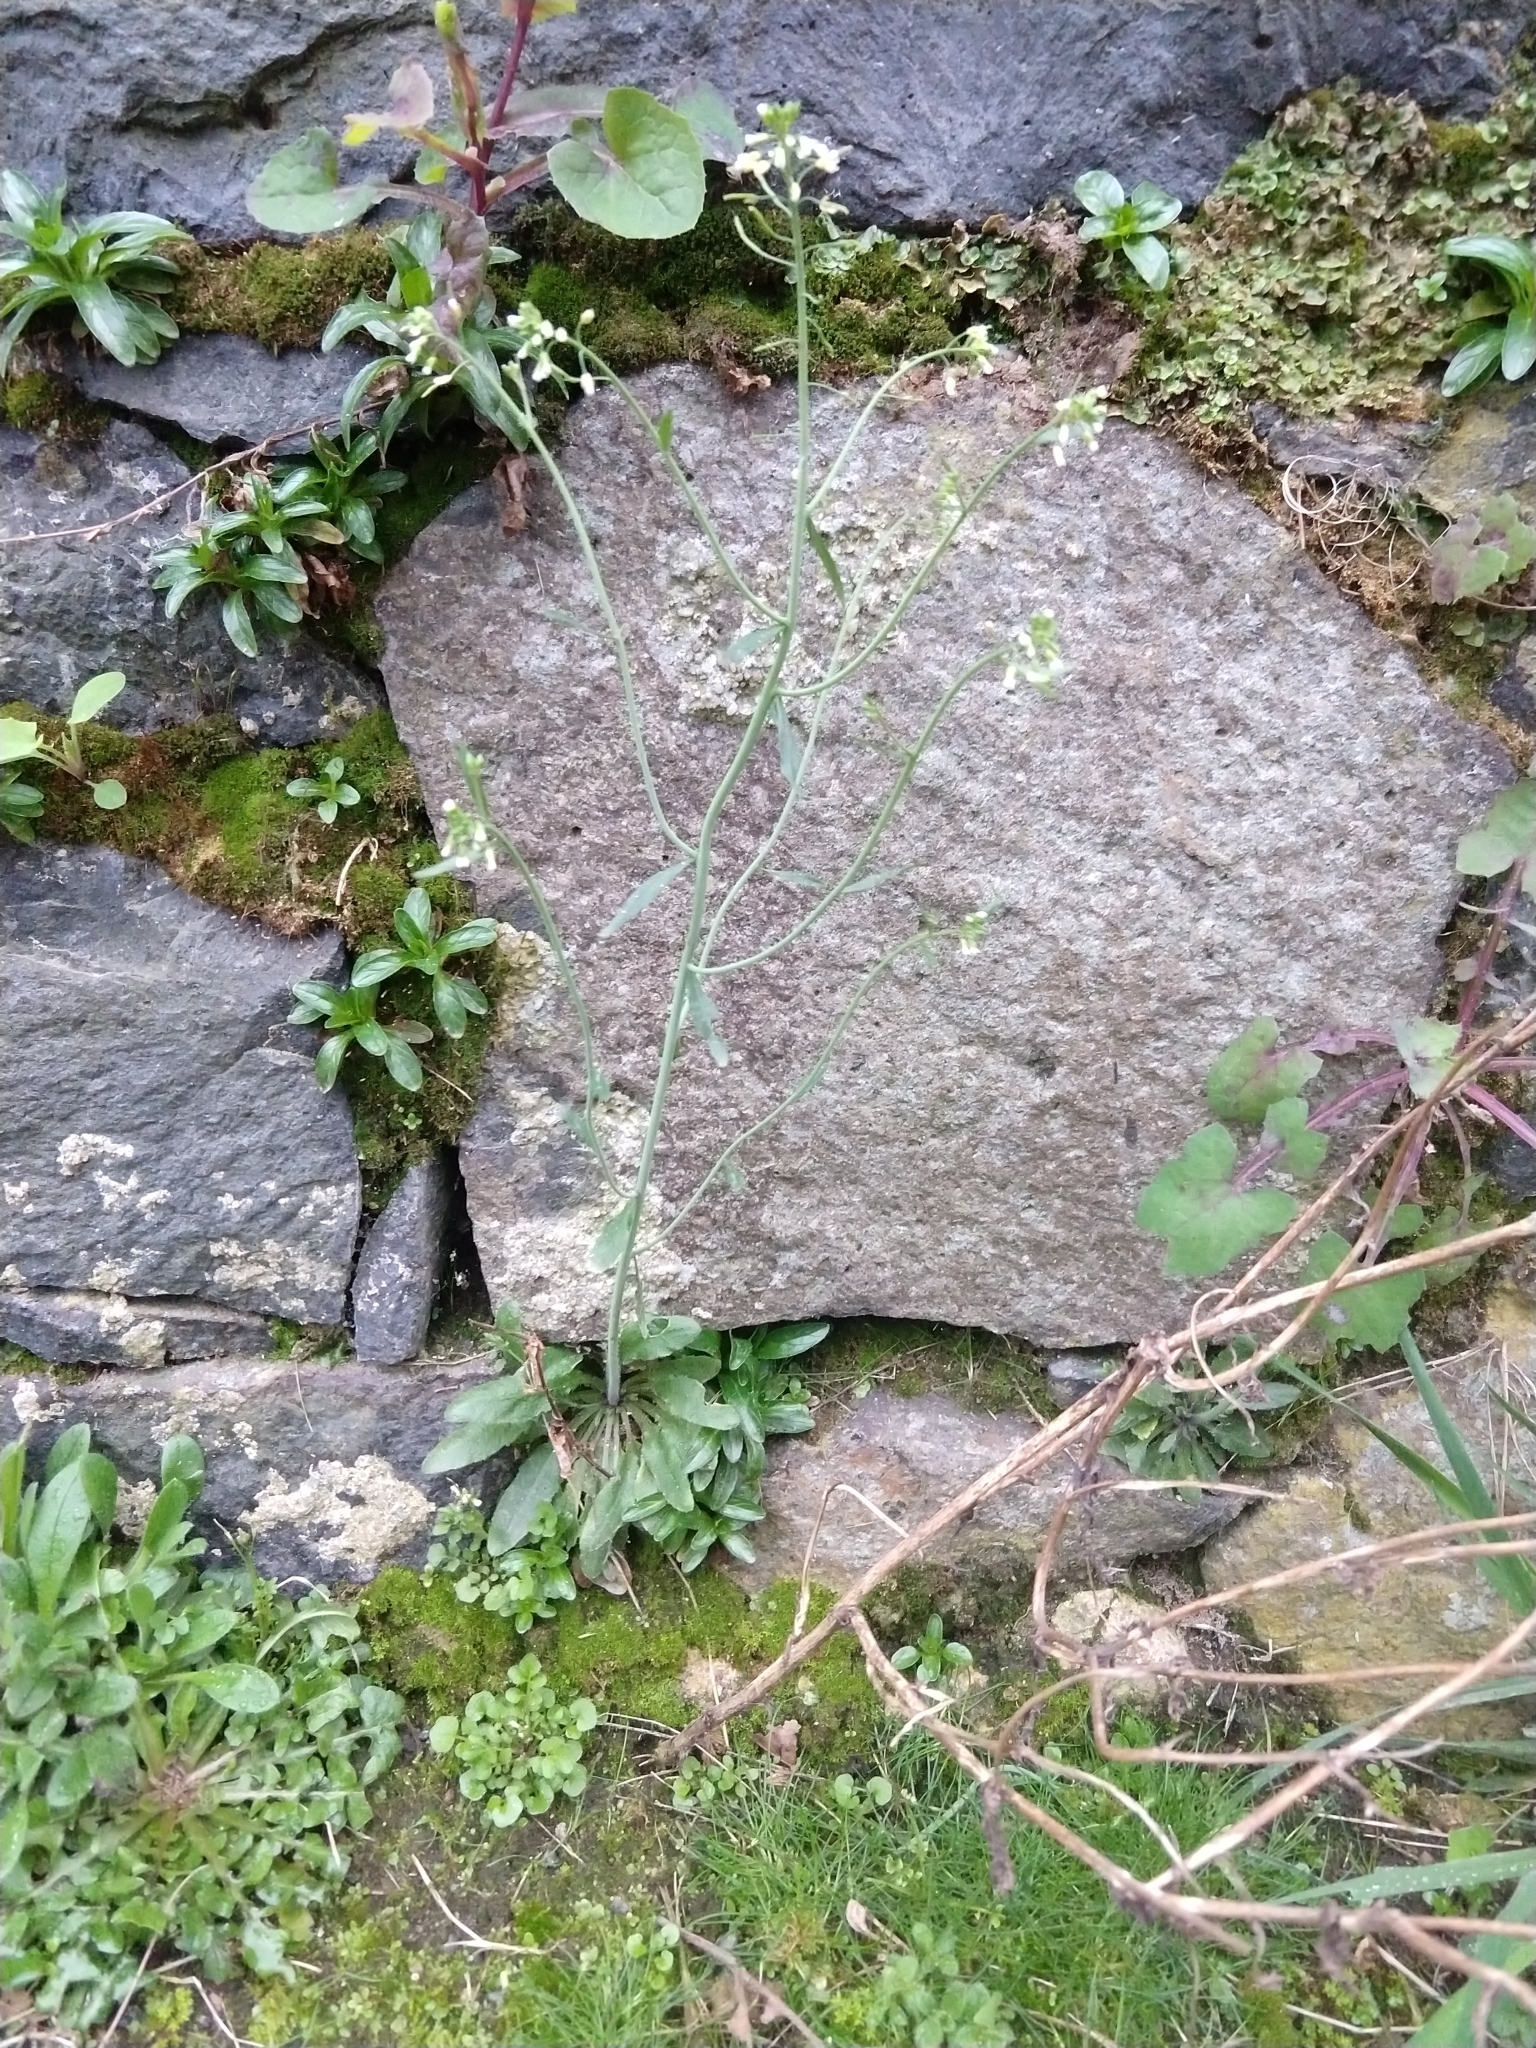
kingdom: Plantae
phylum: Tracheophyta
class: Magnoliopsida
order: Brassicales
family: Brassicaceae
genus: Arabidopsis
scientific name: Arabidopsis thaliana
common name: Thale cress
